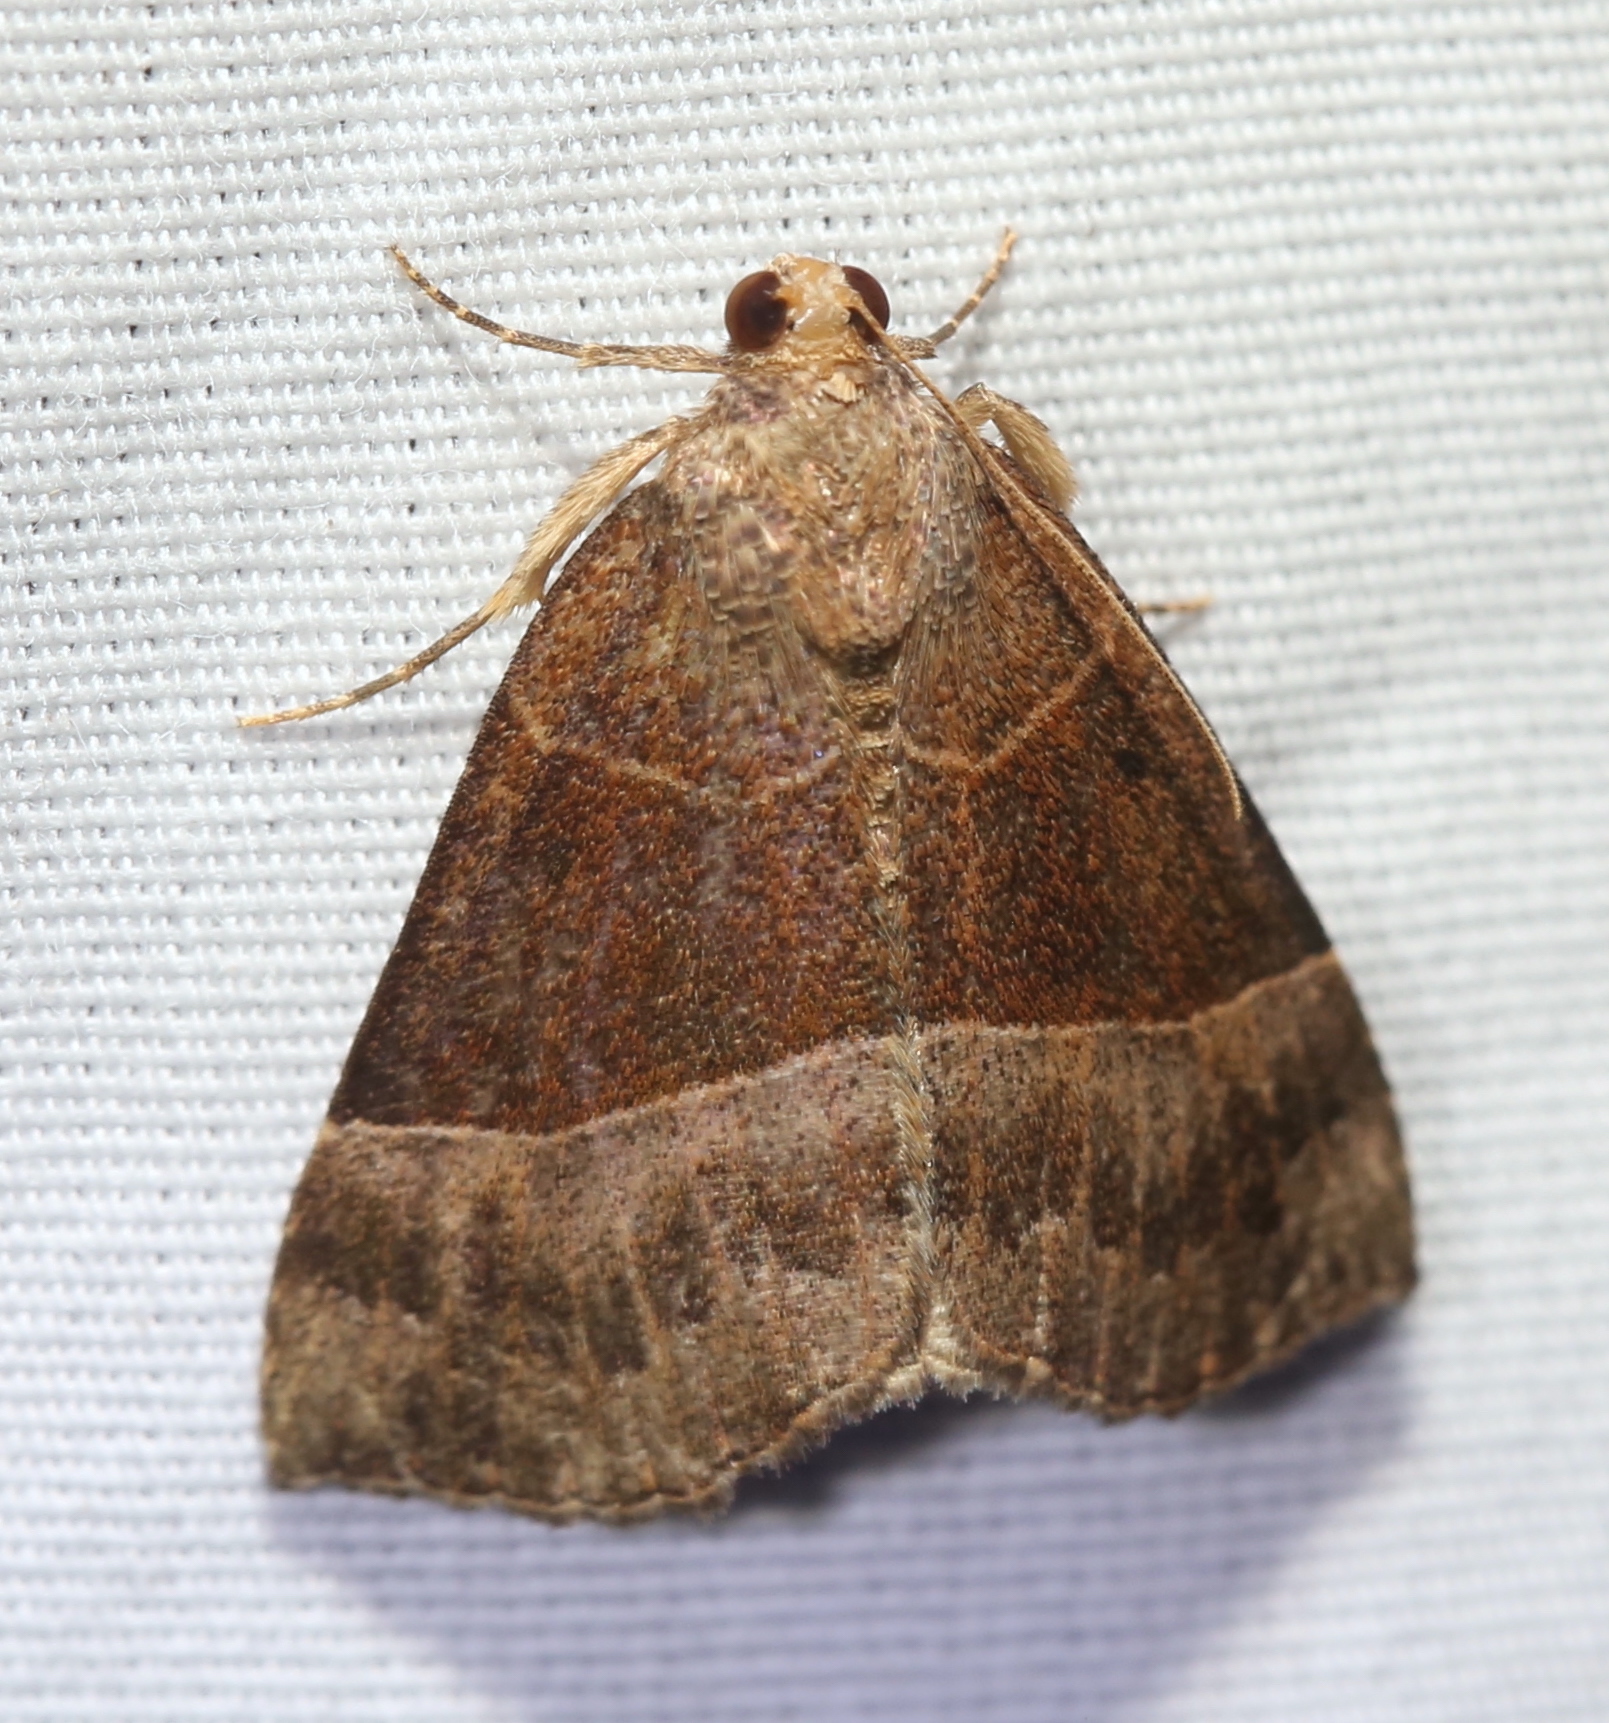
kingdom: Animalia
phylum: Arthropoda
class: Insecta
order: Lepidoptera
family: Erebidae
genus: Hypena
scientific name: Hypena deceptalis
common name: Deceptive snout
